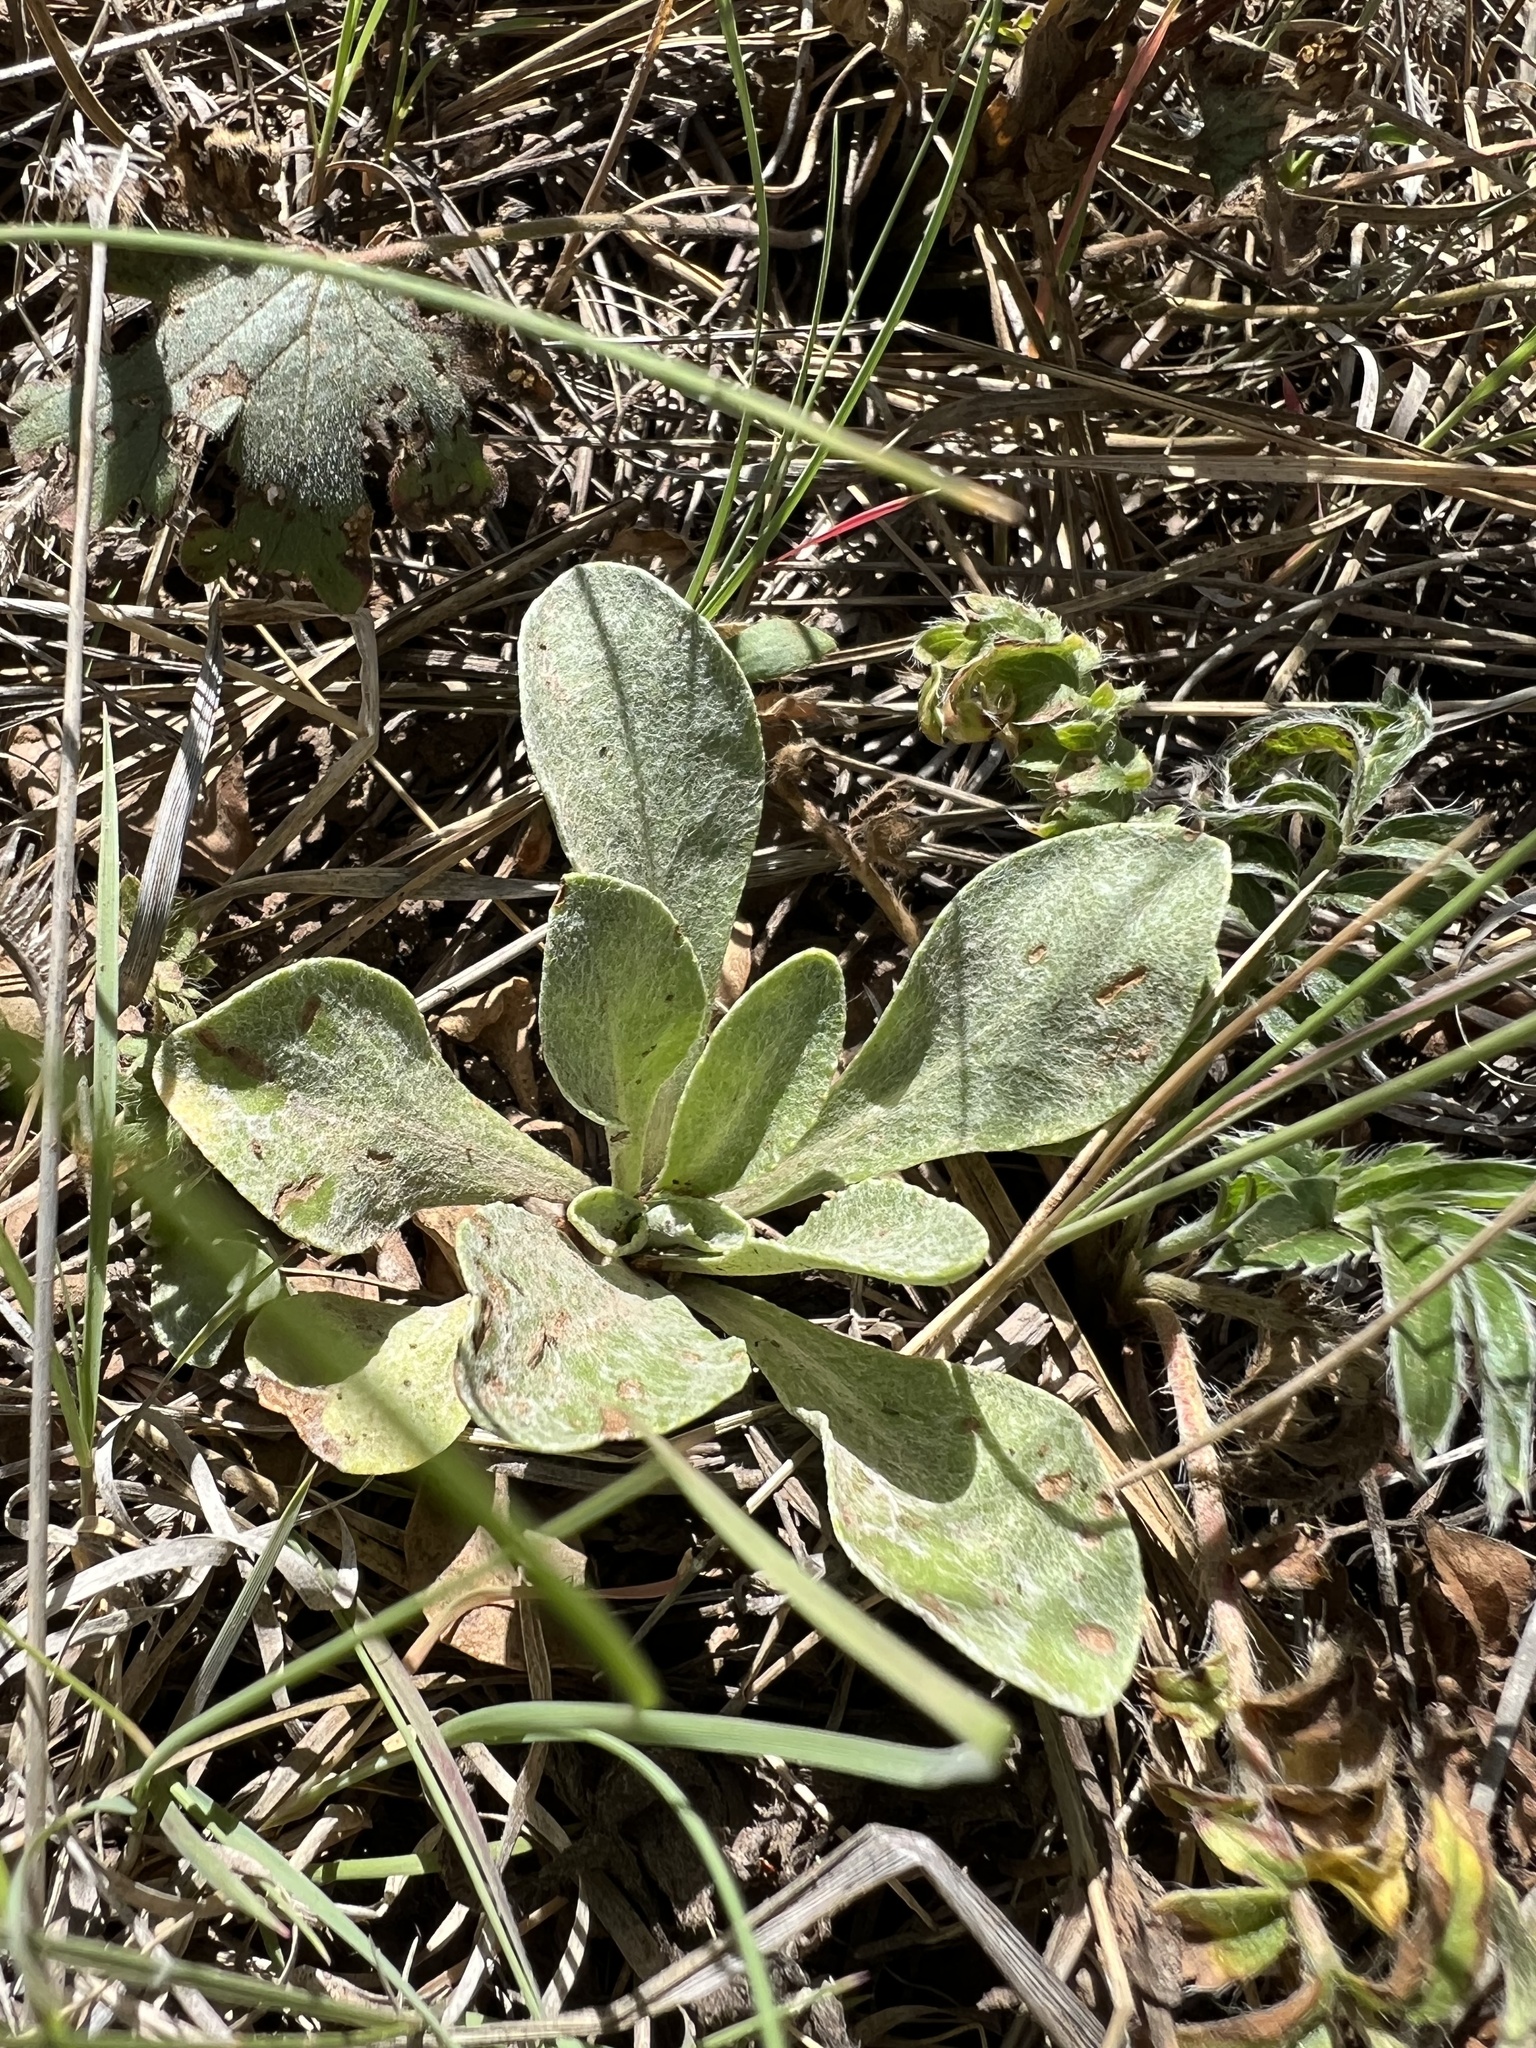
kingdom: Plantae
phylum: Tracheophyta
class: Magnoliopsida
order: Asterales
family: Asteraceae
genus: Packera
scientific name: Packera actinella
